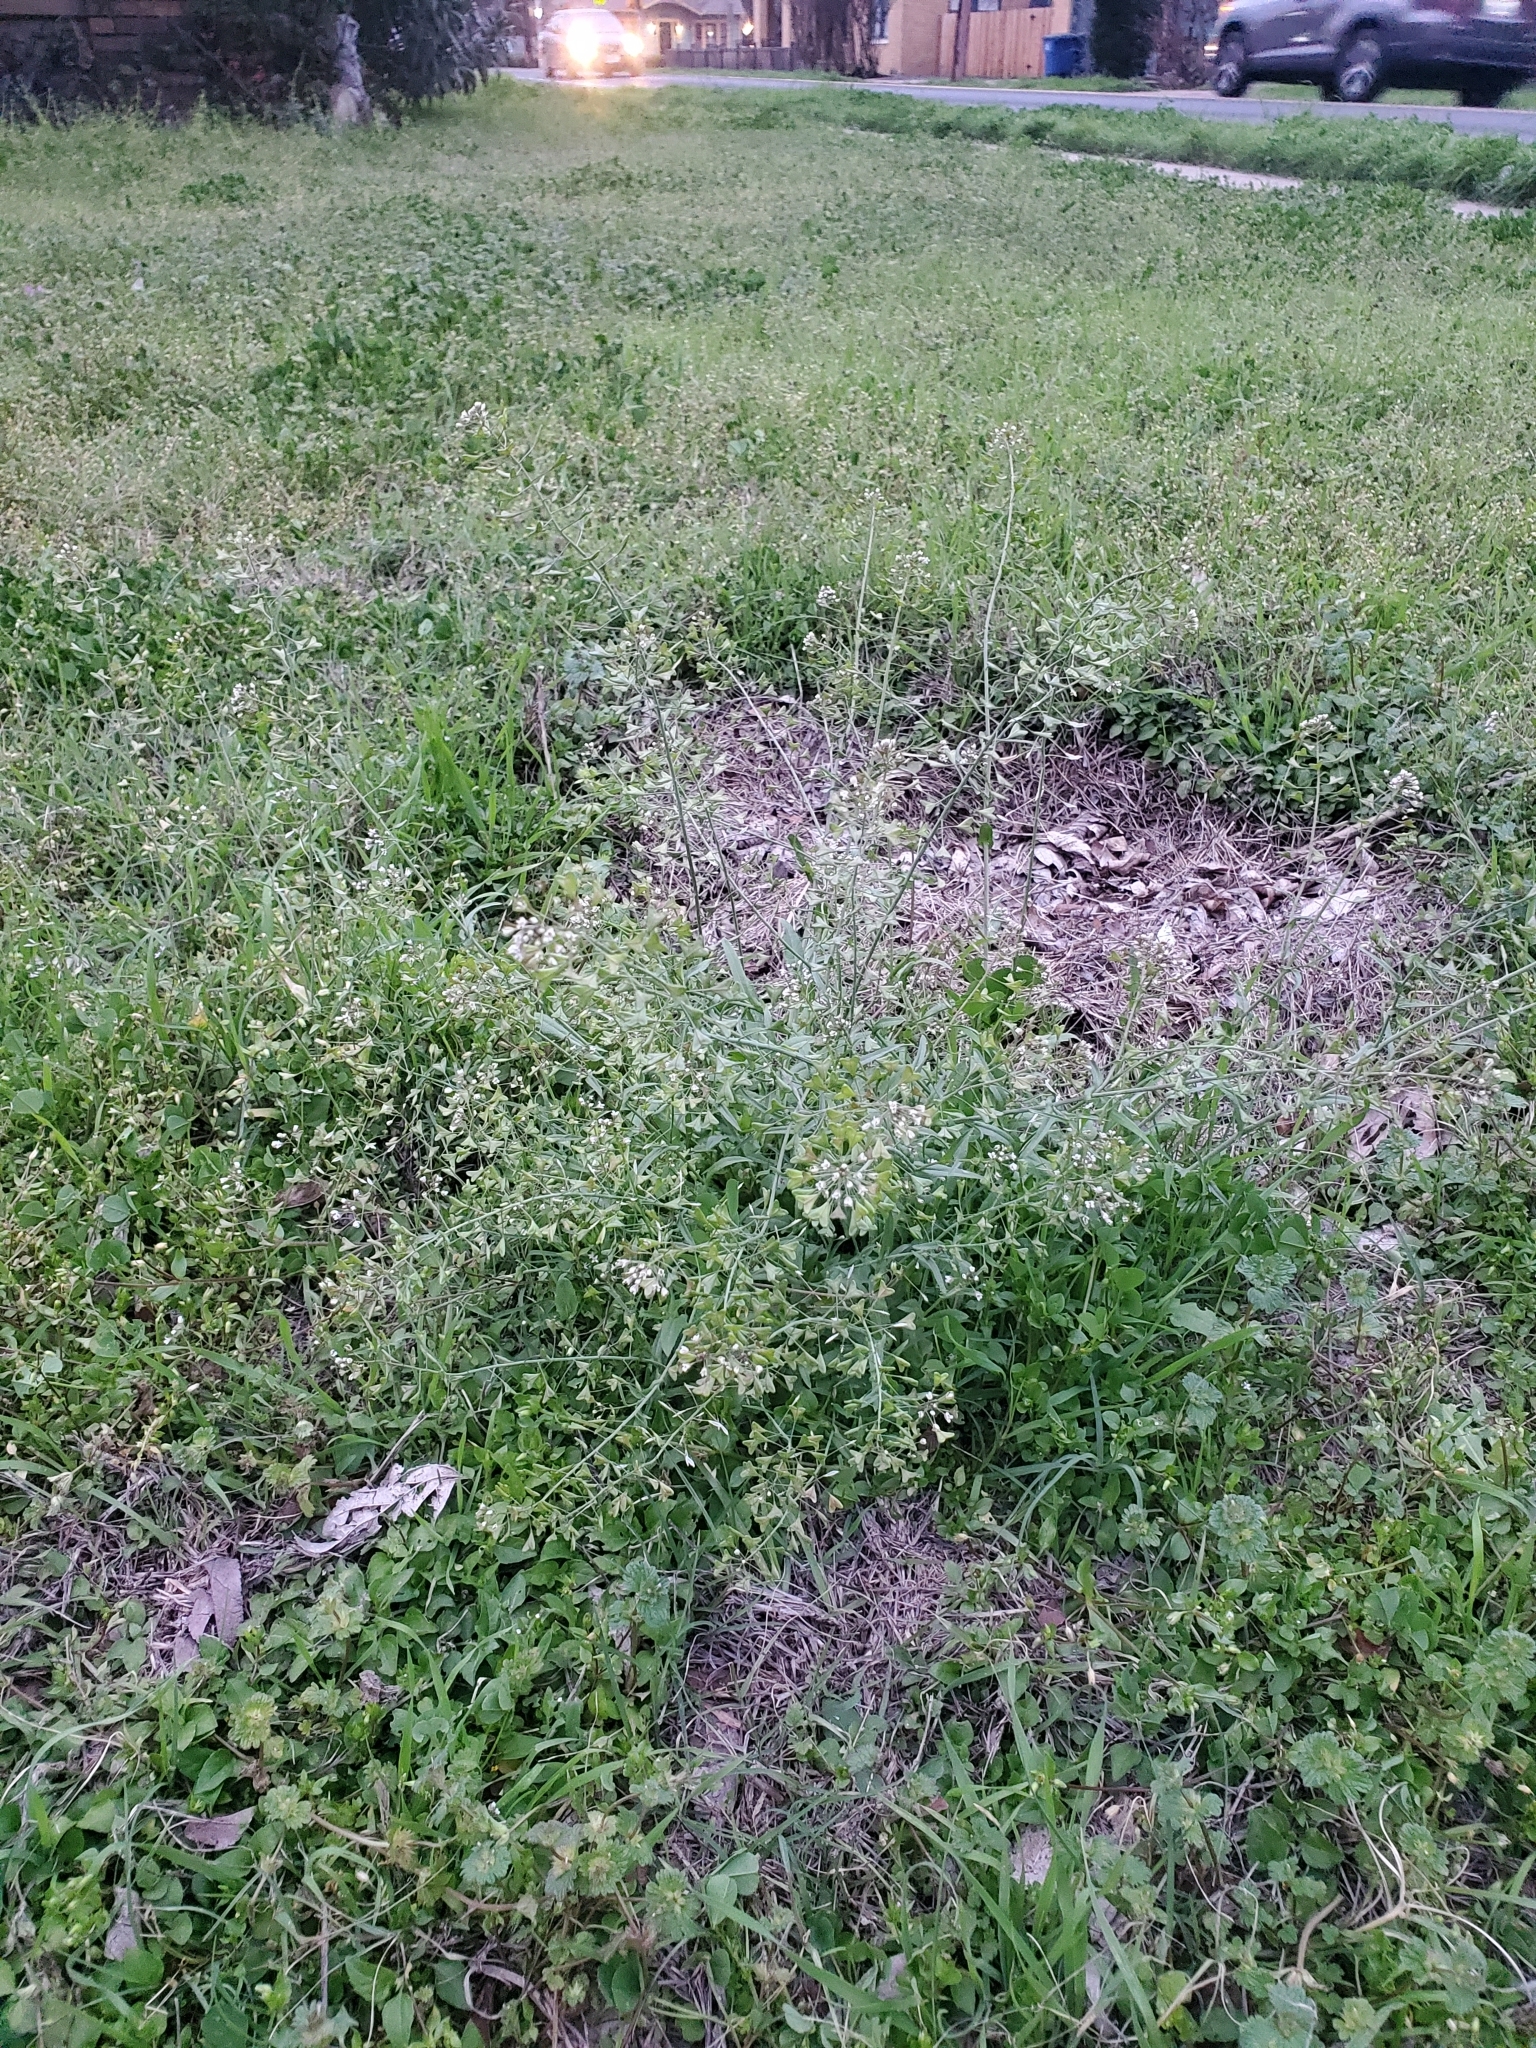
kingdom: Plantae
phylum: Tracheophyta
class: Magnoliopsida
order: Brassicales
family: Brassicaceae
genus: Capsella
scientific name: Capsella bursa-pastoris
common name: Shepherd's purse
